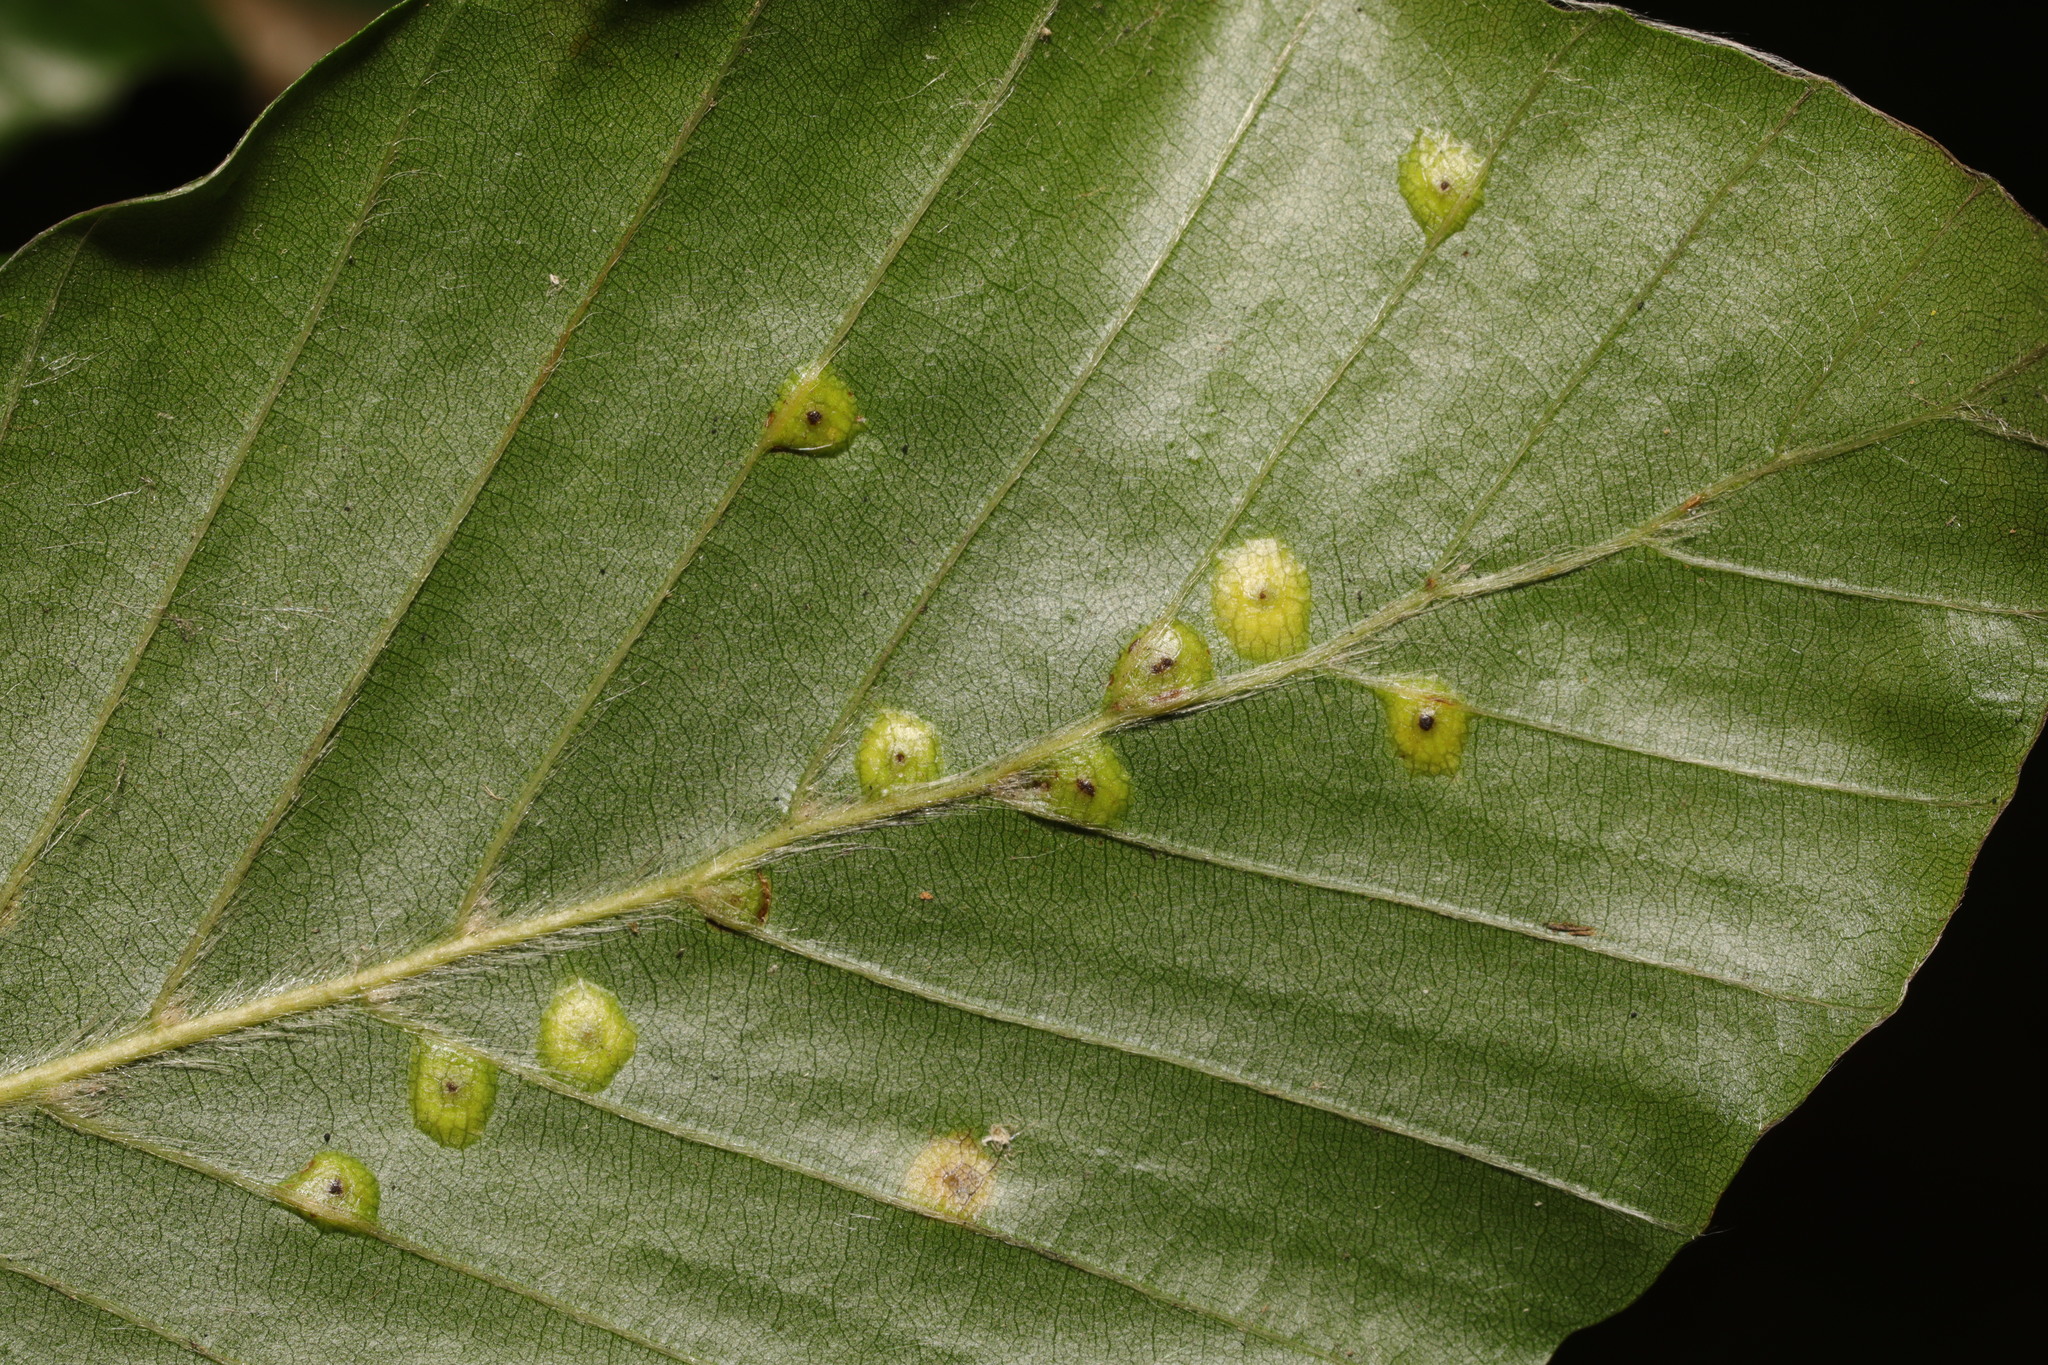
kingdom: Animalia
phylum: Arthropoda
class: Insecta
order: Diptera
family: Cecidomyiidae
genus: Hartigiola
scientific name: Hartigiola annulipes
